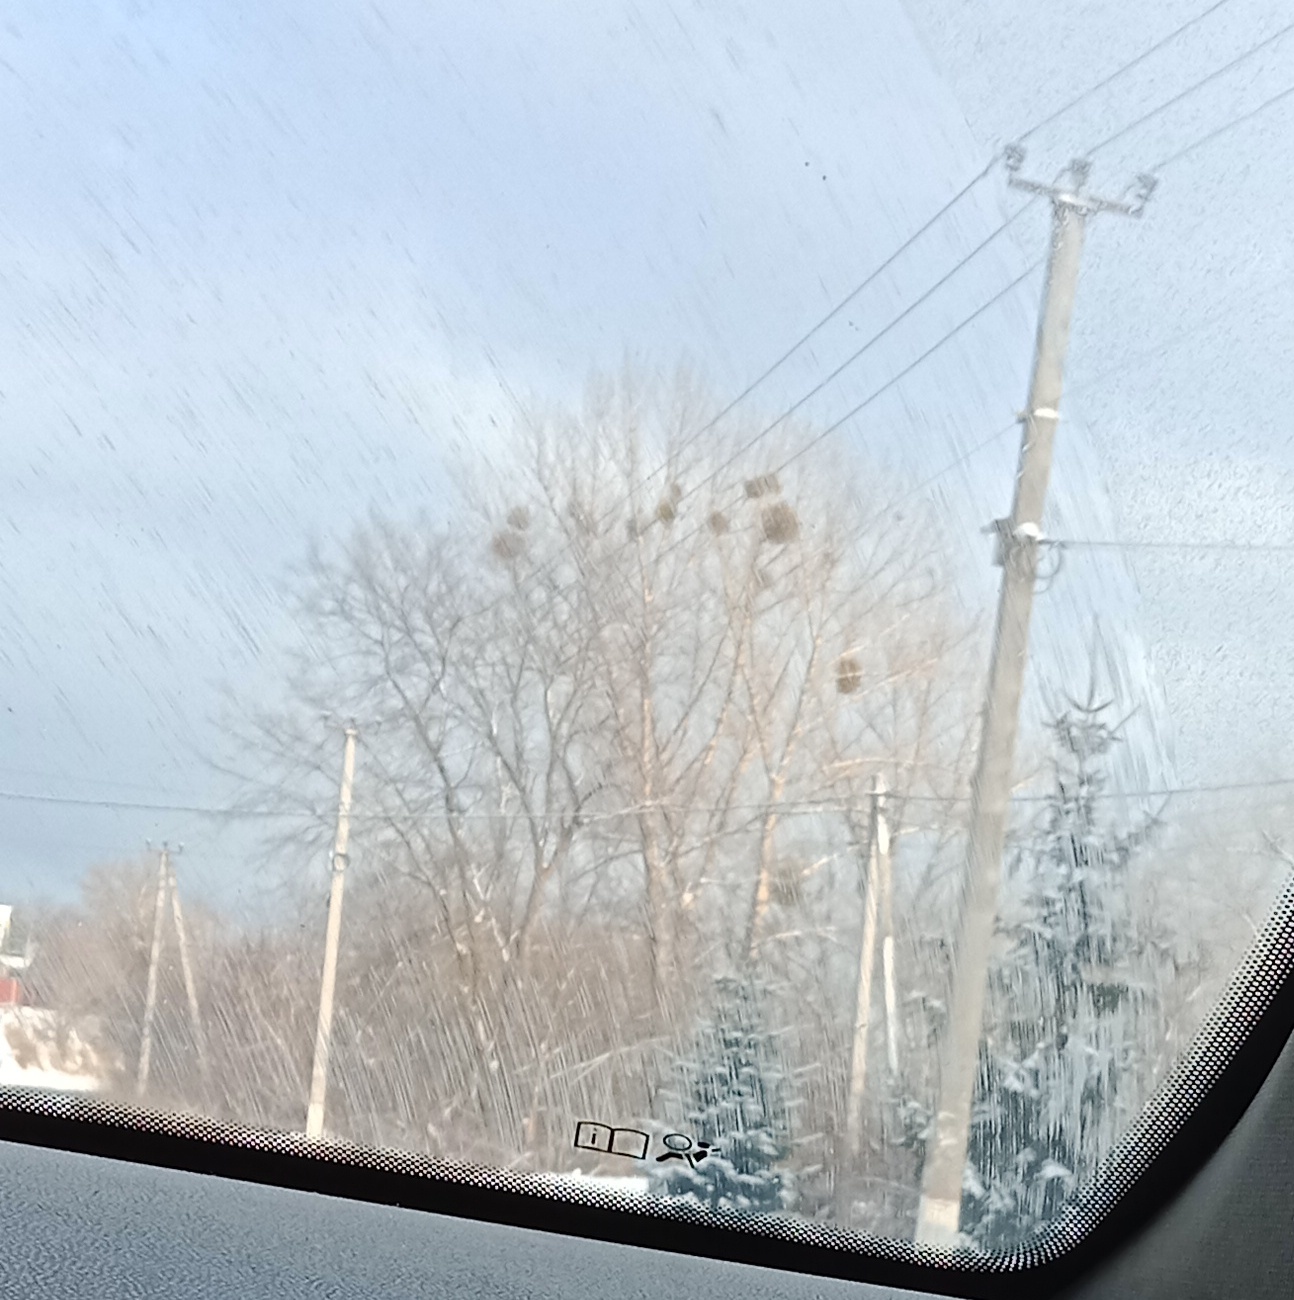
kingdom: Plantae
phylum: Tracheophyta
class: Magnoliopsida
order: Santalales
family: Viscaceae
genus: Viscum
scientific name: Viscum album
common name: Mistletoe
